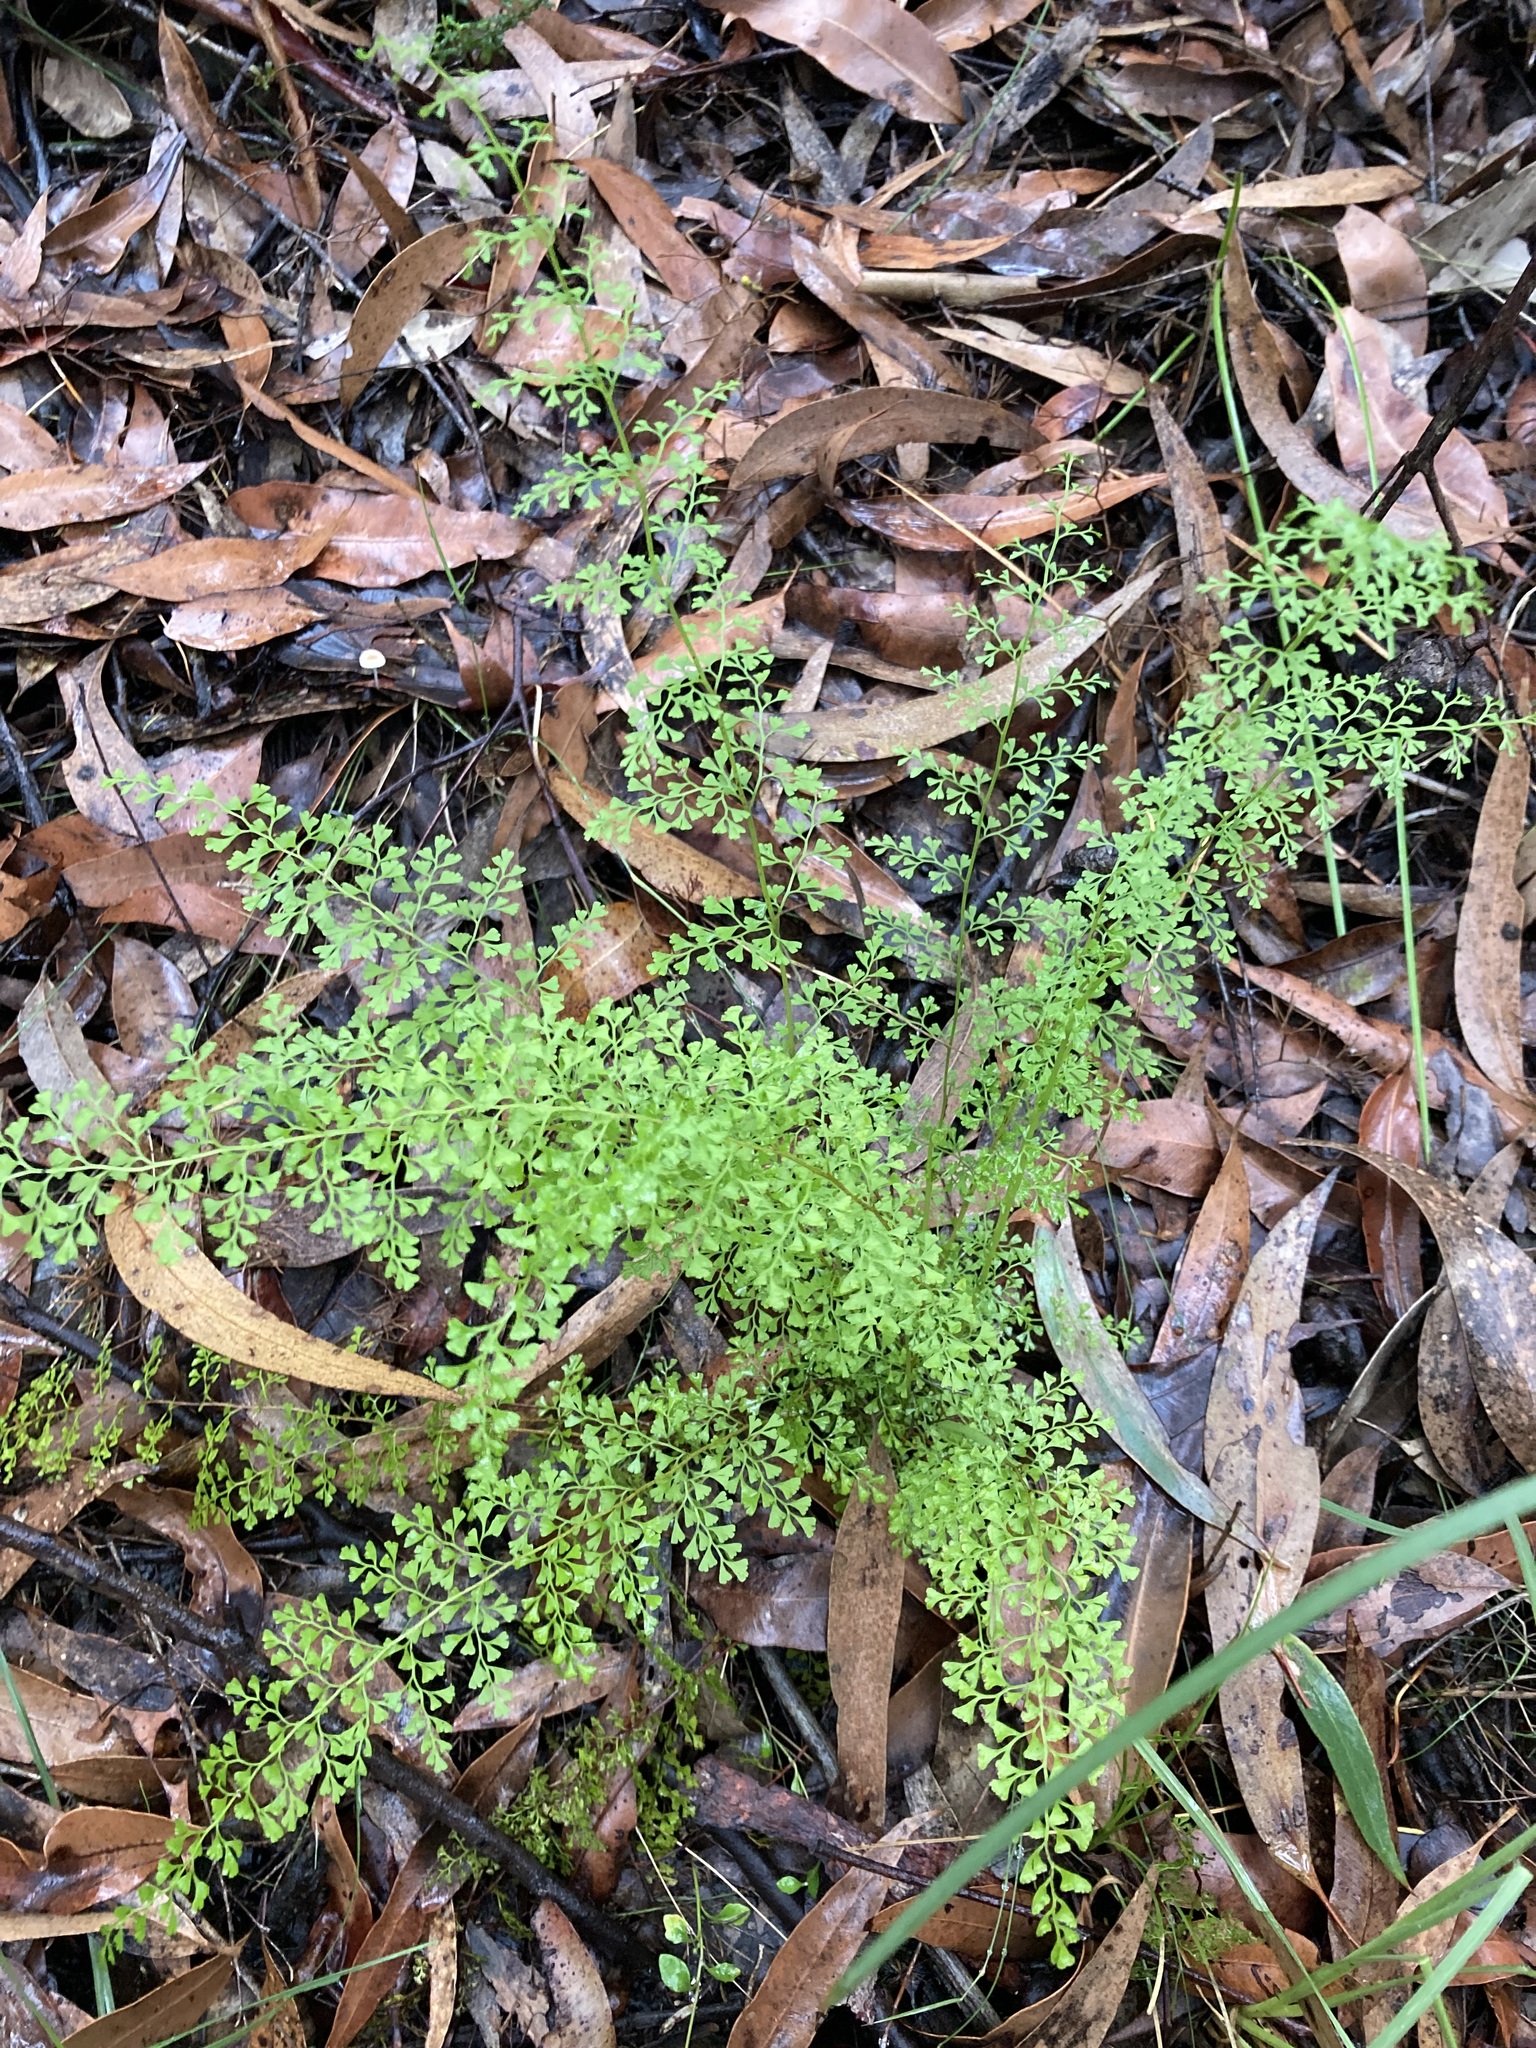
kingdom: Plantae
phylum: Tracheophyta
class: Polypodiopsida
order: Polypodiales
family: Lindsaeaceae
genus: Lindsaea
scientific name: Lindsaea microphylla
